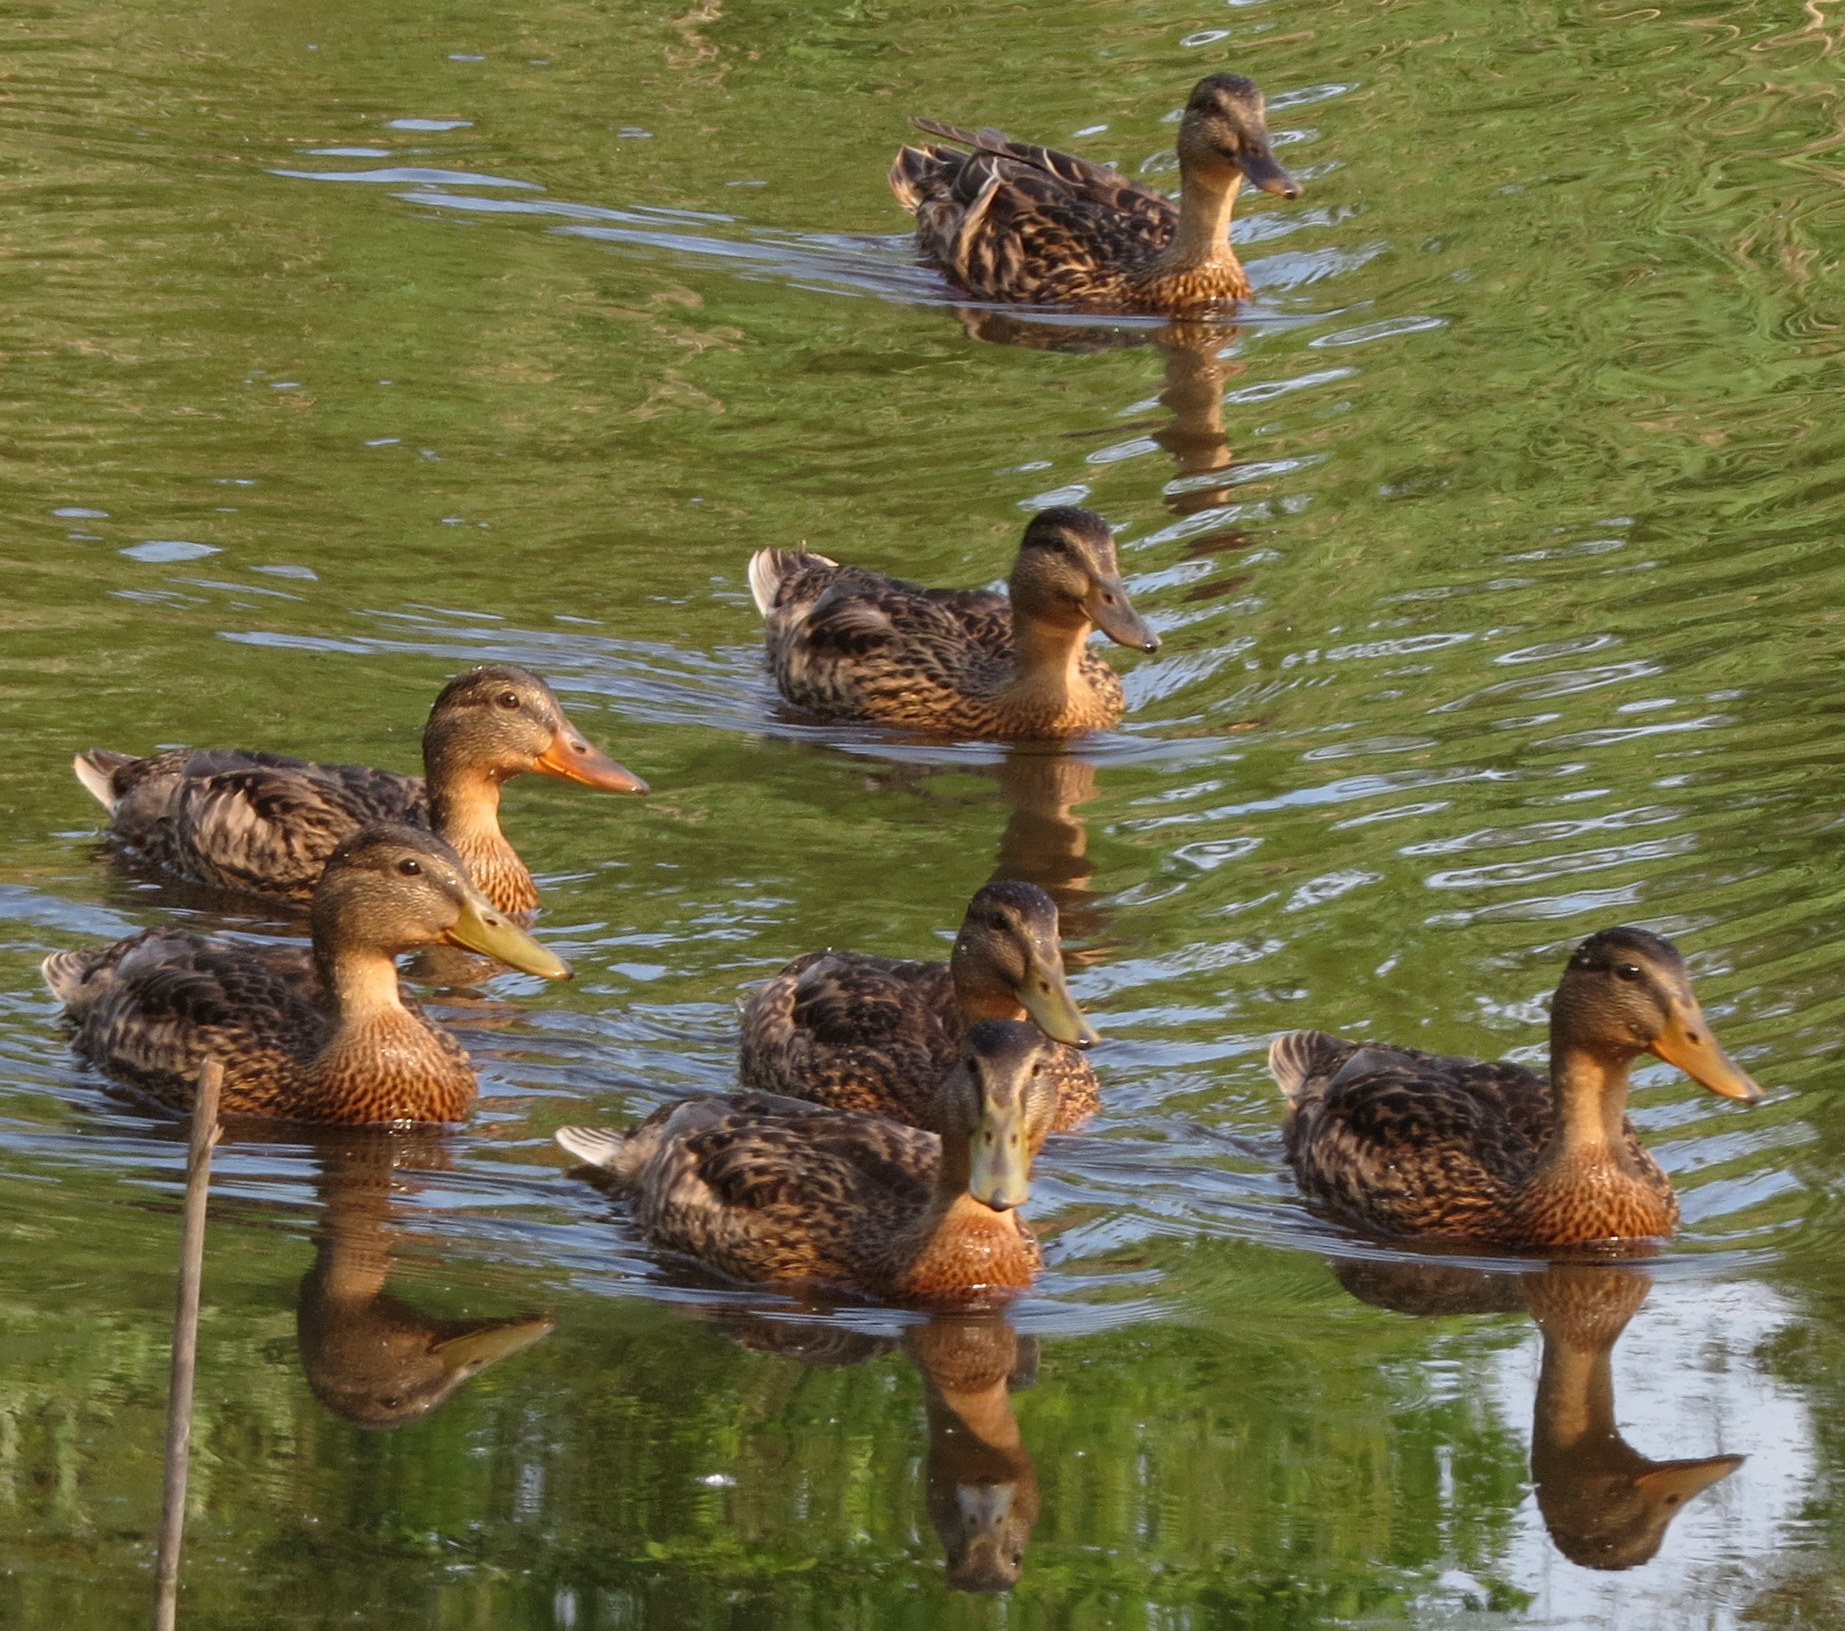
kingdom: Animalia
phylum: Chordata
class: Aves
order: Anseriformes
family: Anatidae
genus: Anas
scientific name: Anas platyrhynchos
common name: Mallard
